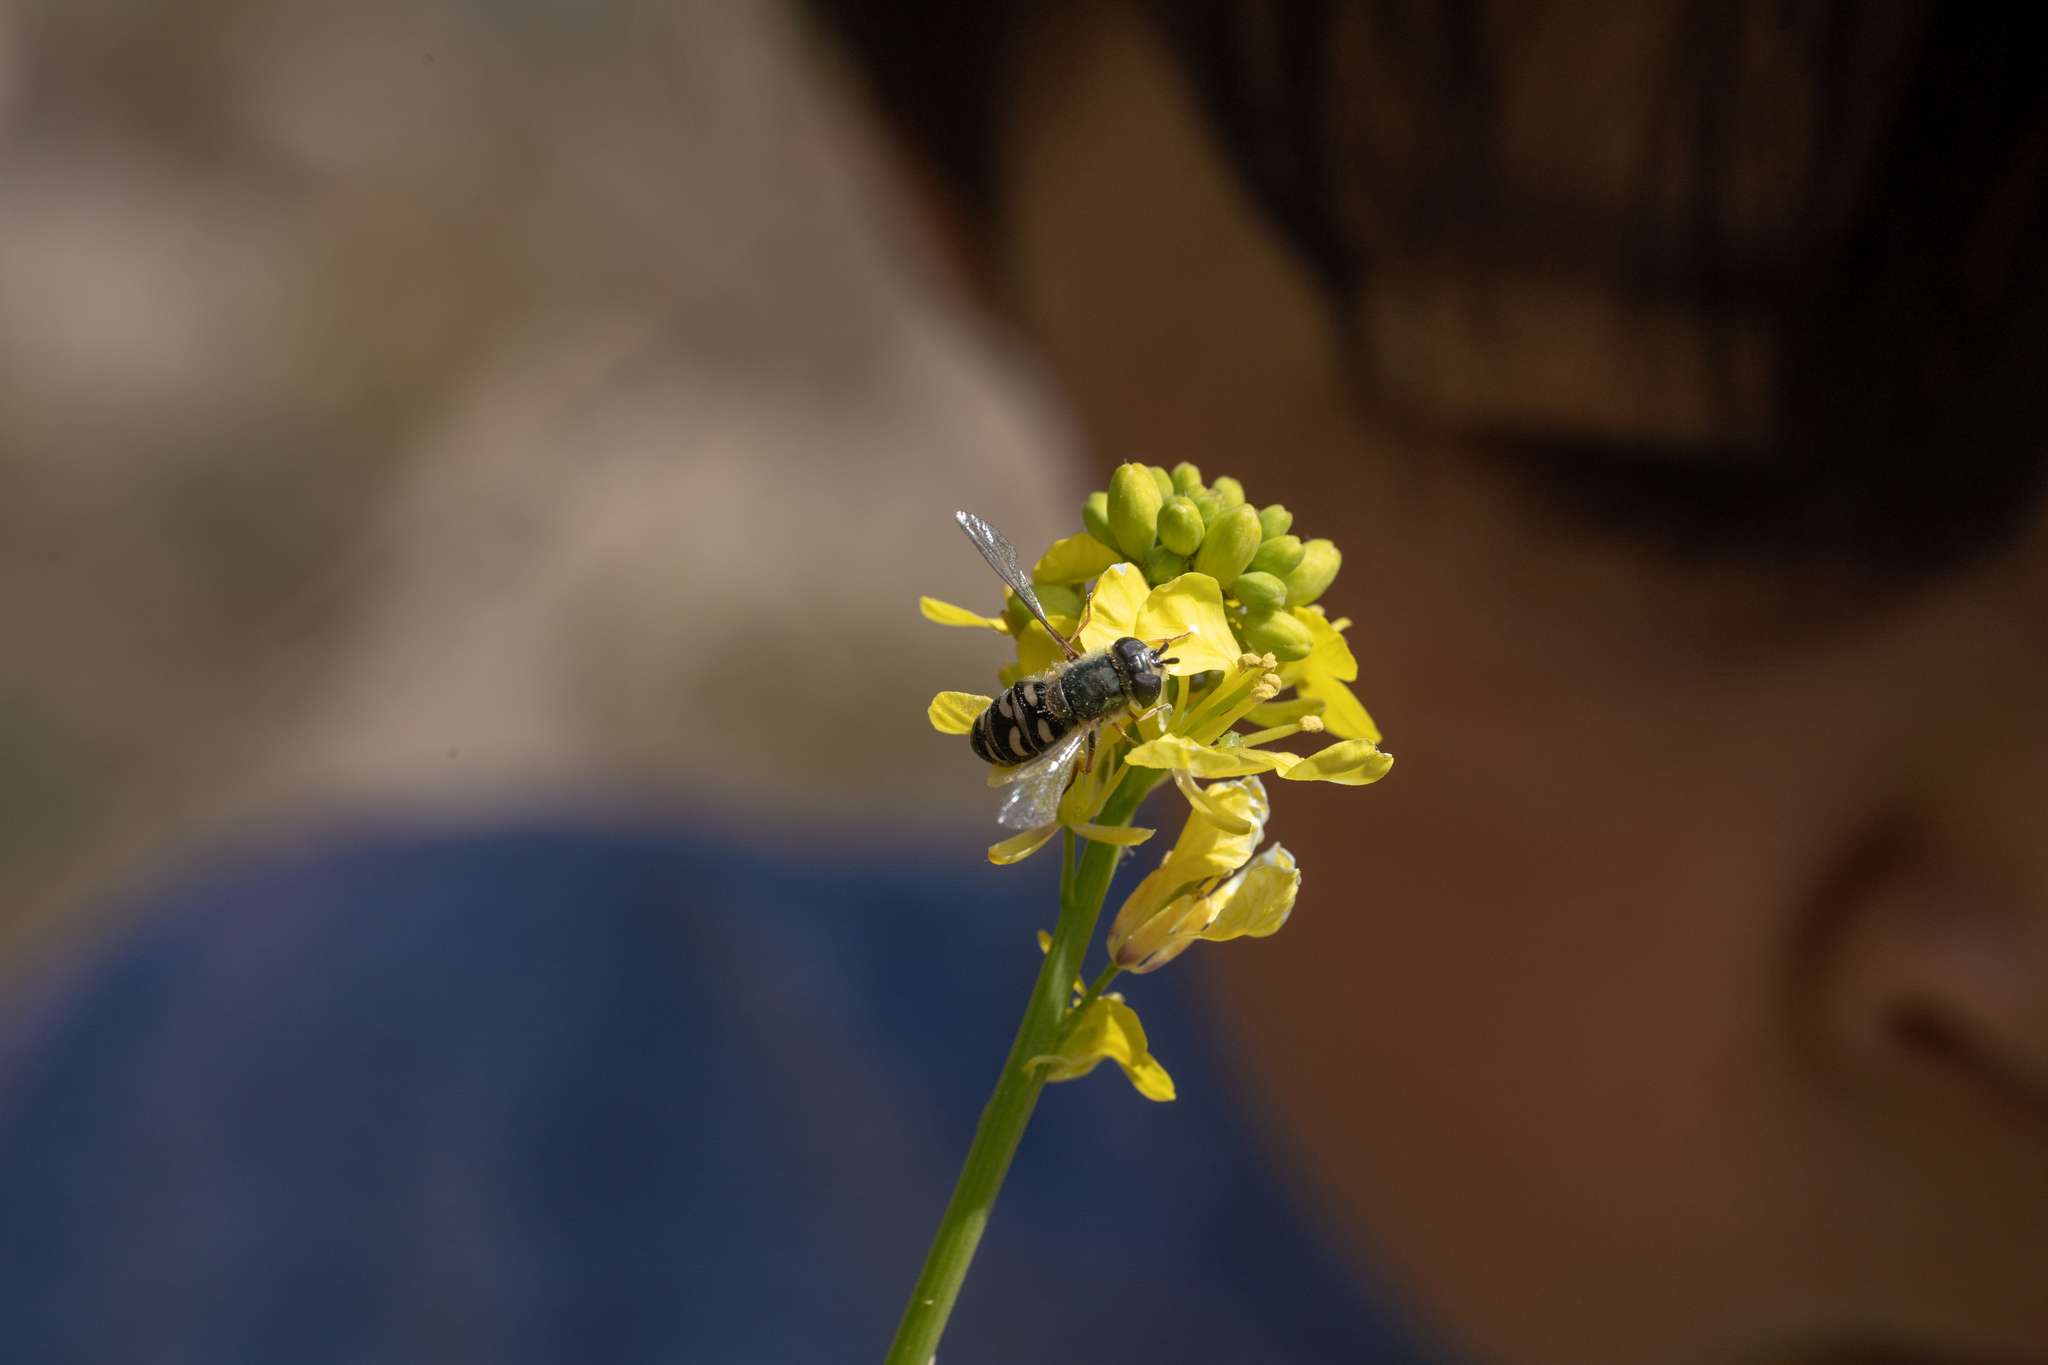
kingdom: Animalia
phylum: Arthropoda
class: Insecta
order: Diptera
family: Syrphidae
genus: Eupeodes
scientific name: Eupeodes volucris
